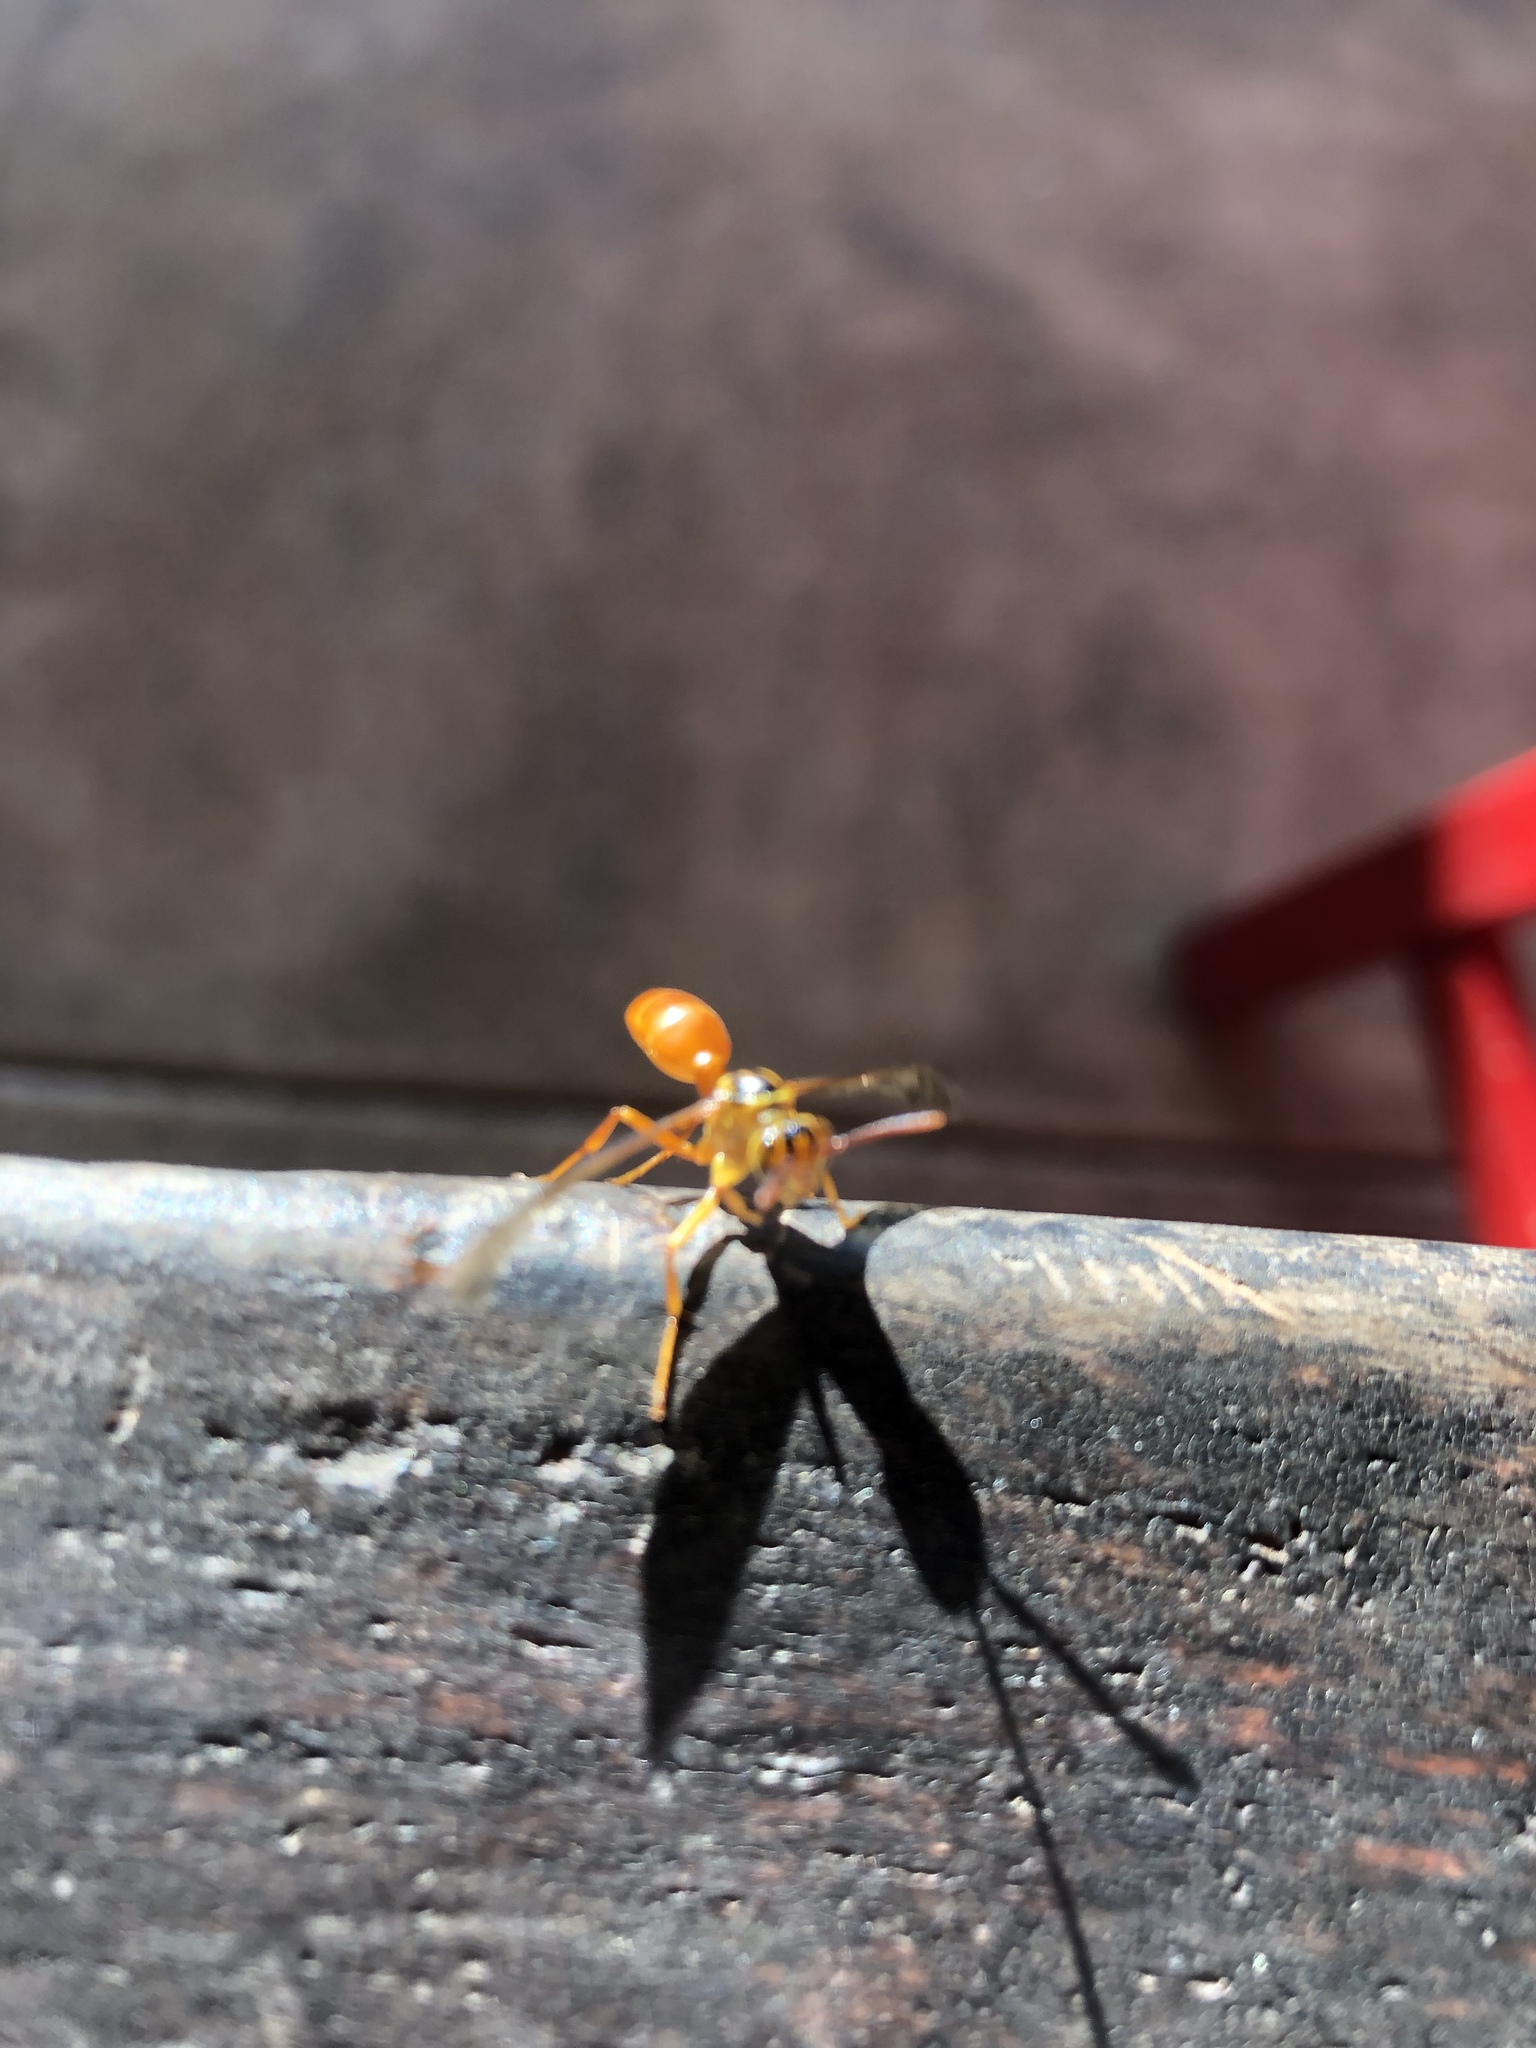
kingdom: Animalia
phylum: Arthropoda
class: Insecta
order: Hymenoptera
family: Vespidae
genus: Agelaia
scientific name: Agelaia centralis
